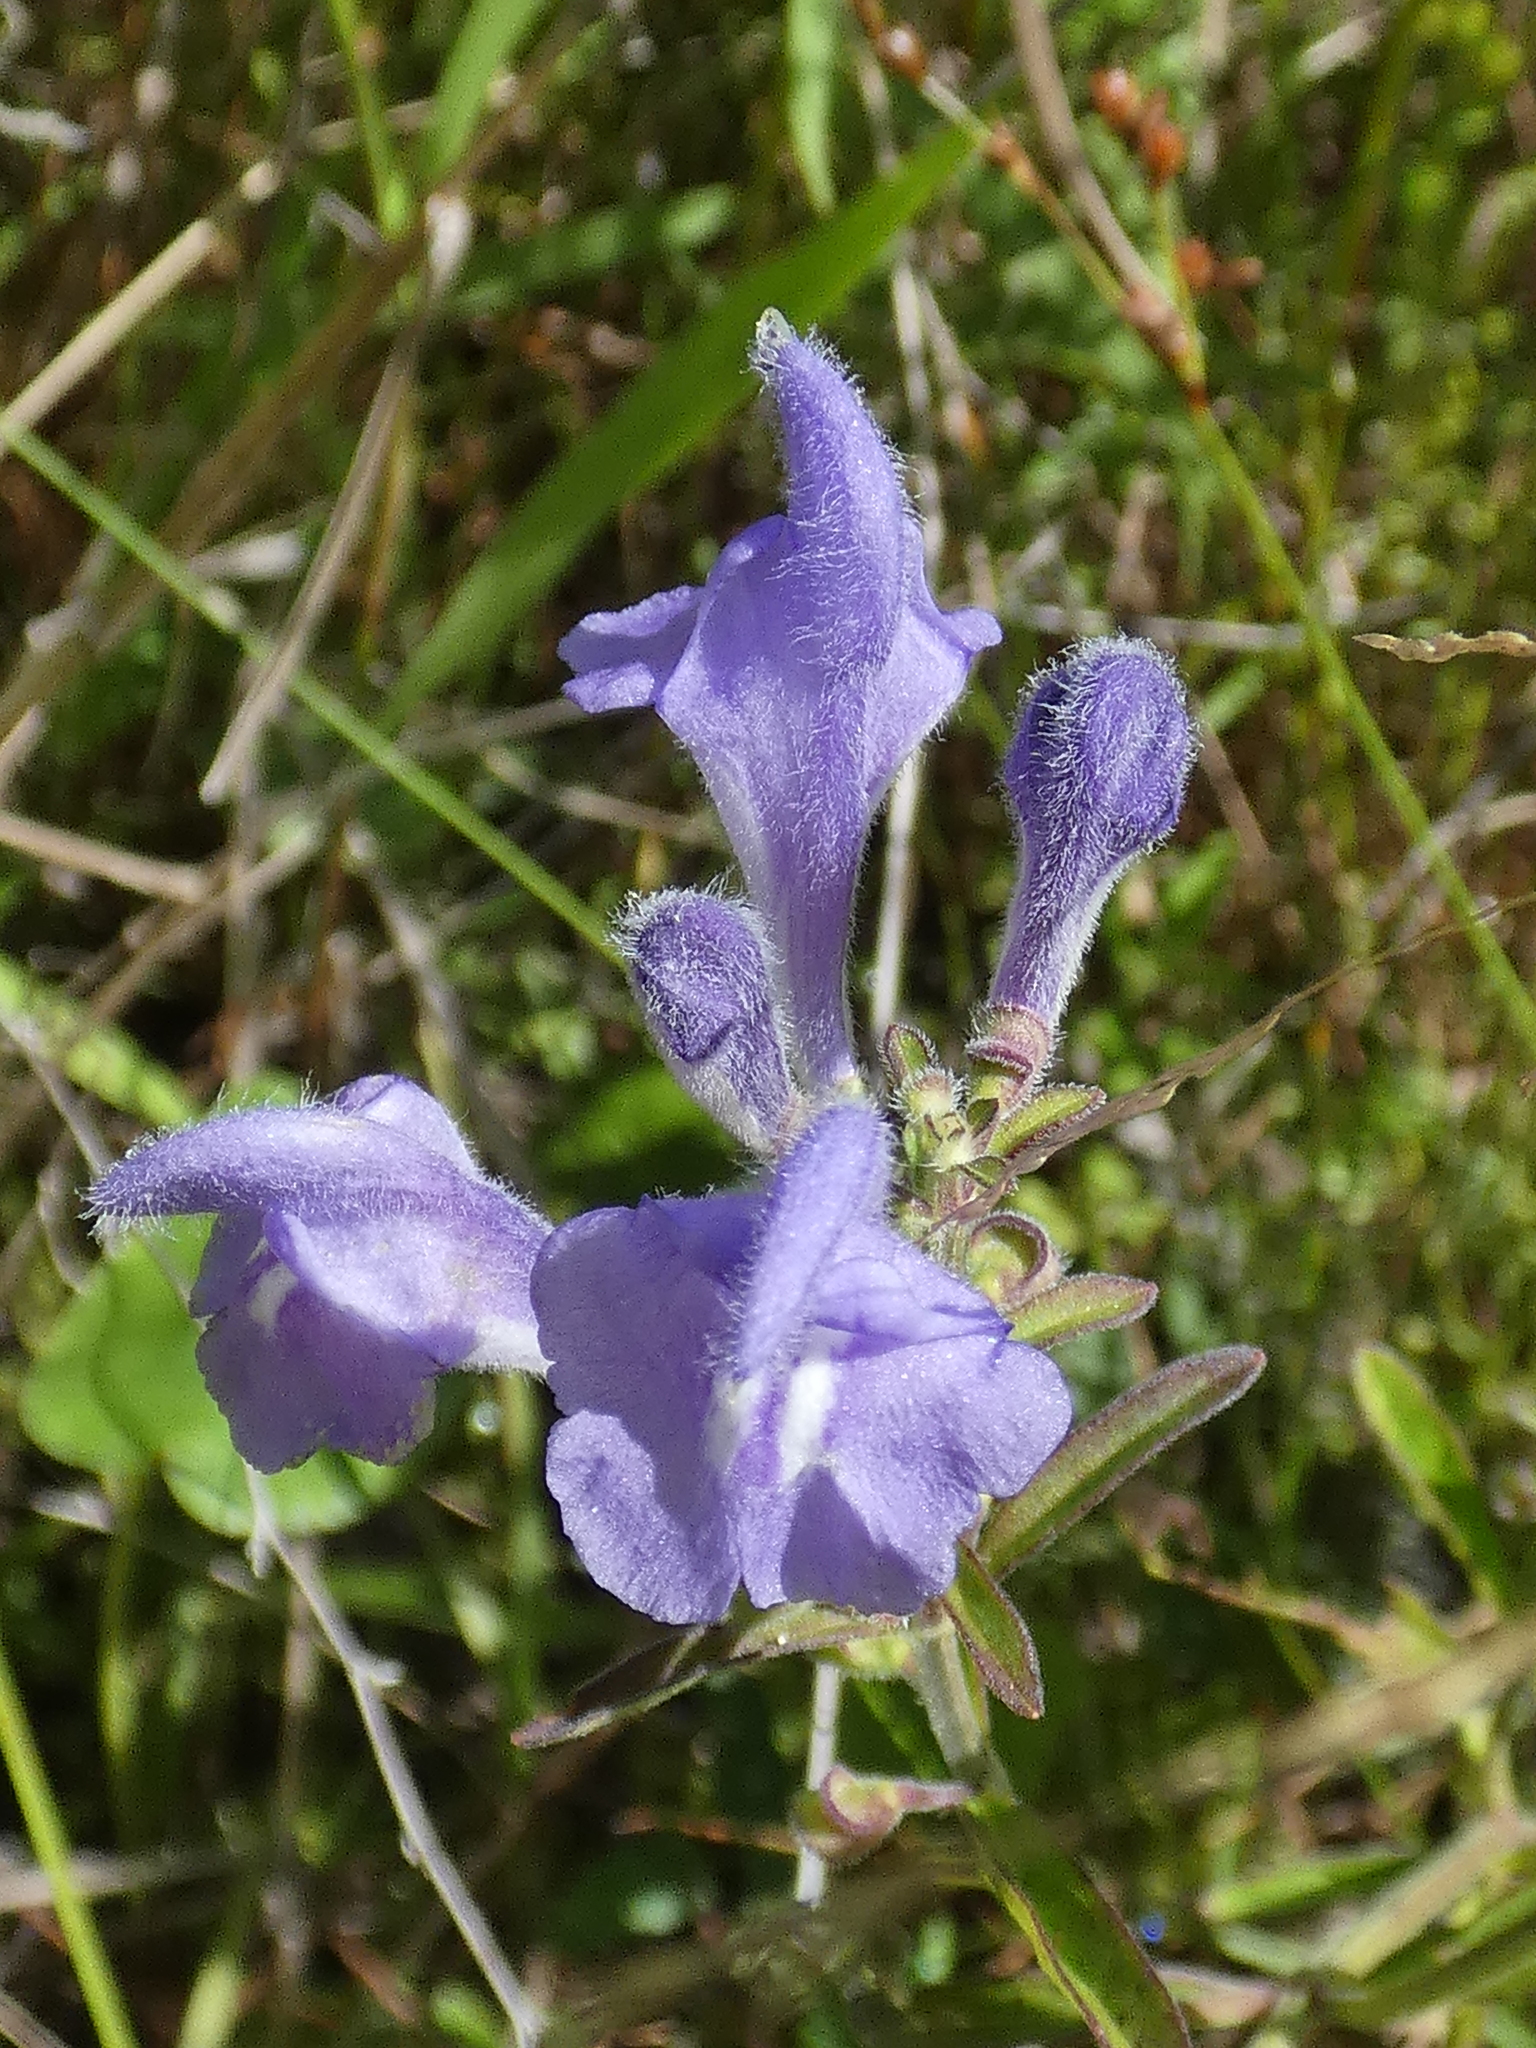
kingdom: Plantae
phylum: Tracheophyta
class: Magnoliopsida
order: Lamiales
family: Lamiaceae
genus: Scutellaria
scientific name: Scutellaria integrifolia
